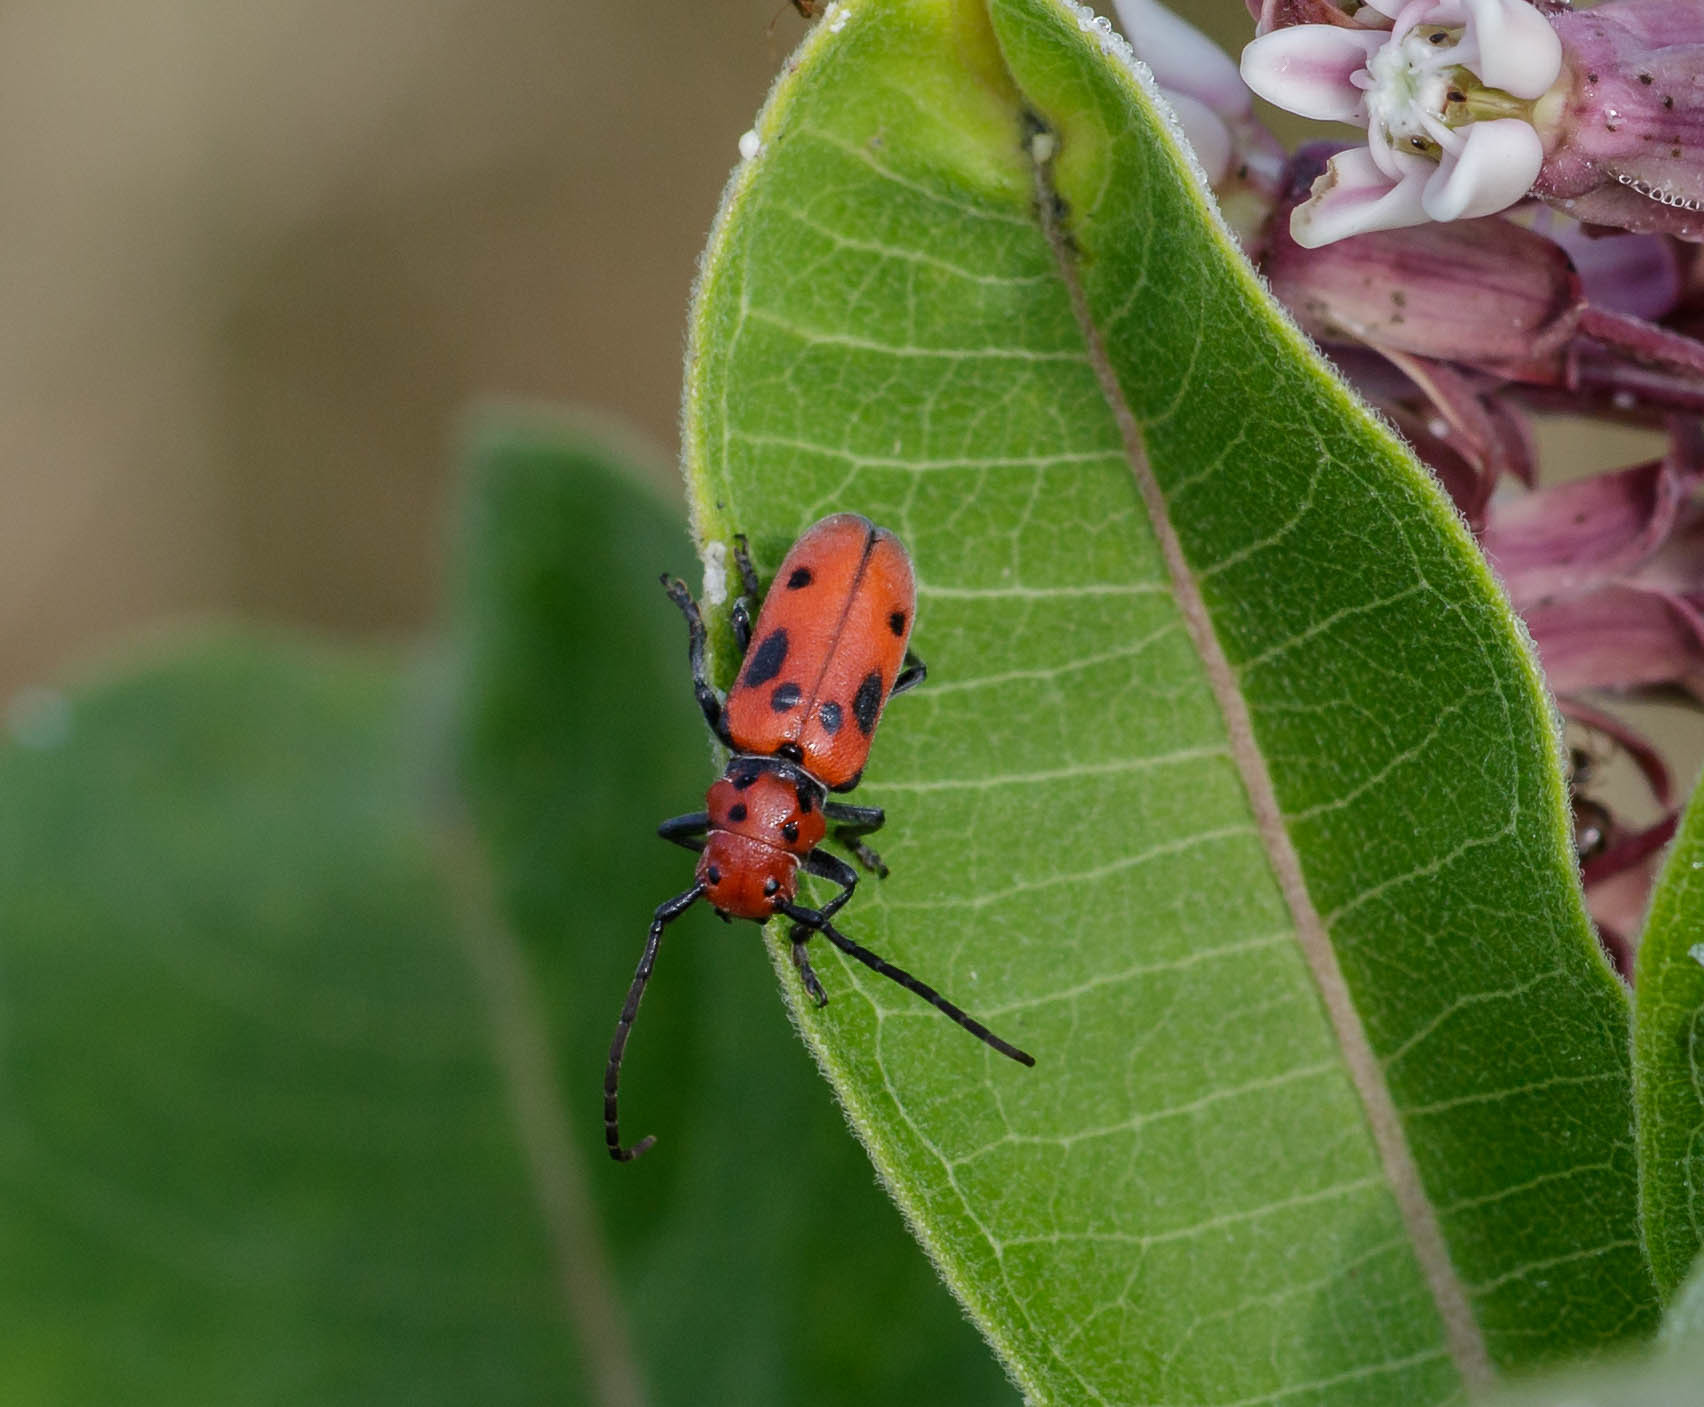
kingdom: Animalia
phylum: Arthropoda
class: Insecta
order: Coleoptera
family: Cerambycidae
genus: Tetraopes
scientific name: Tetraopes tetrophthalmus
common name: Red milkweed beetle
